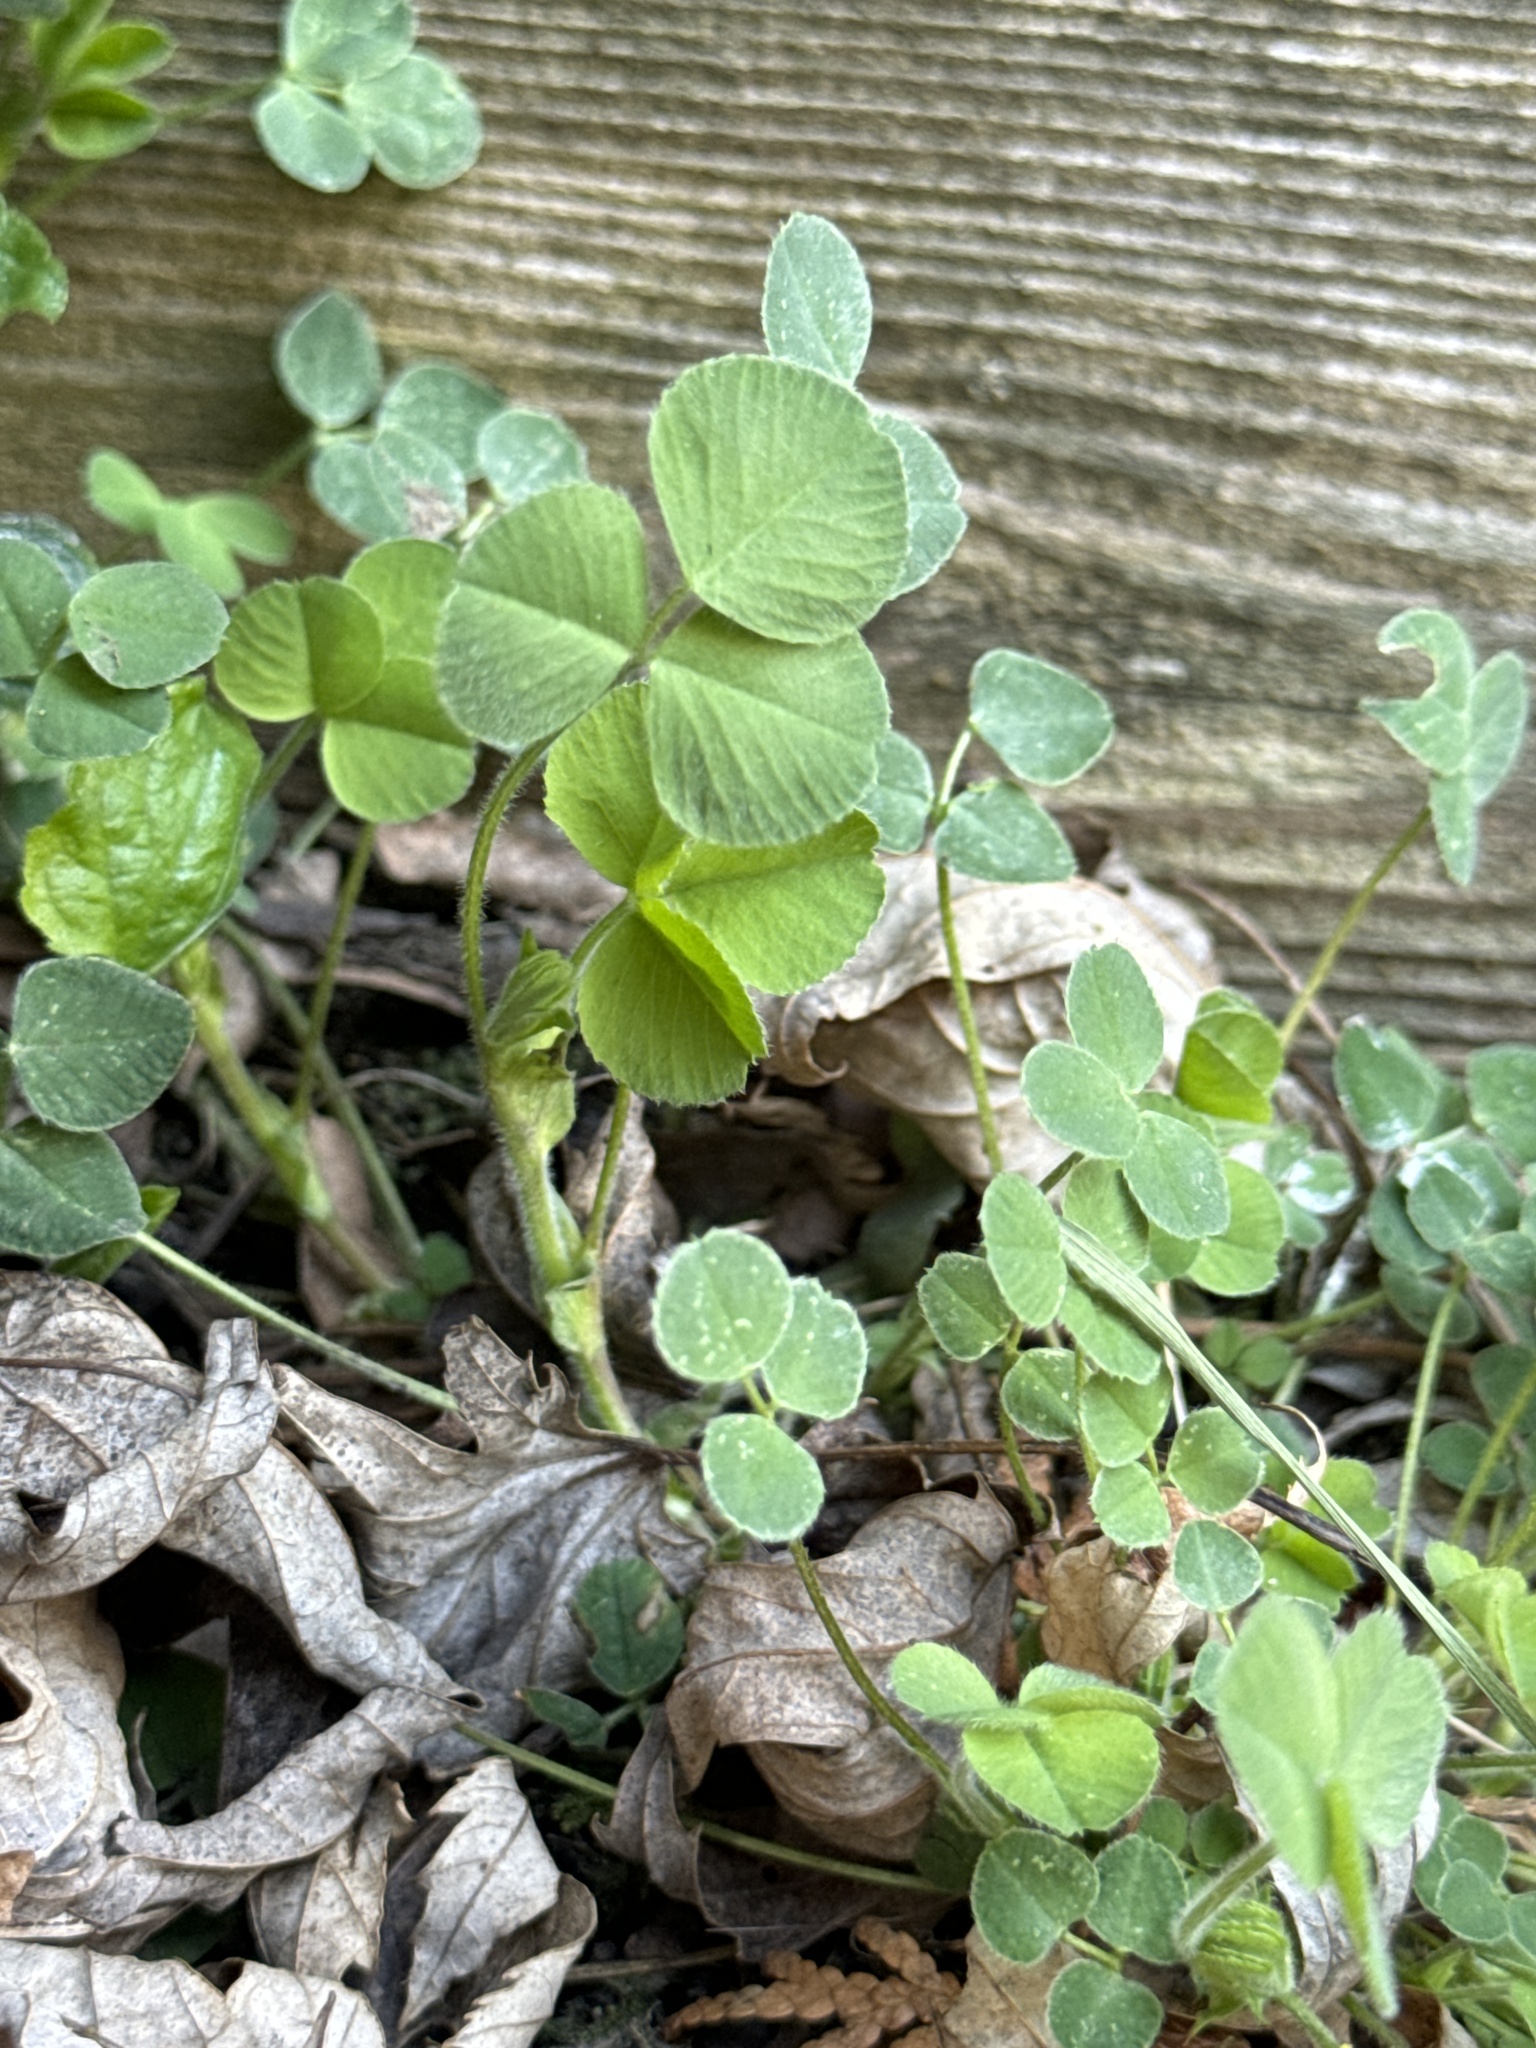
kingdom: Plantae
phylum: Tracheophyta
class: Magnoliopsida
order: Fabales
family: Fabaceae
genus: Medicago
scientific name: Medicago lupulina
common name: Black medick
